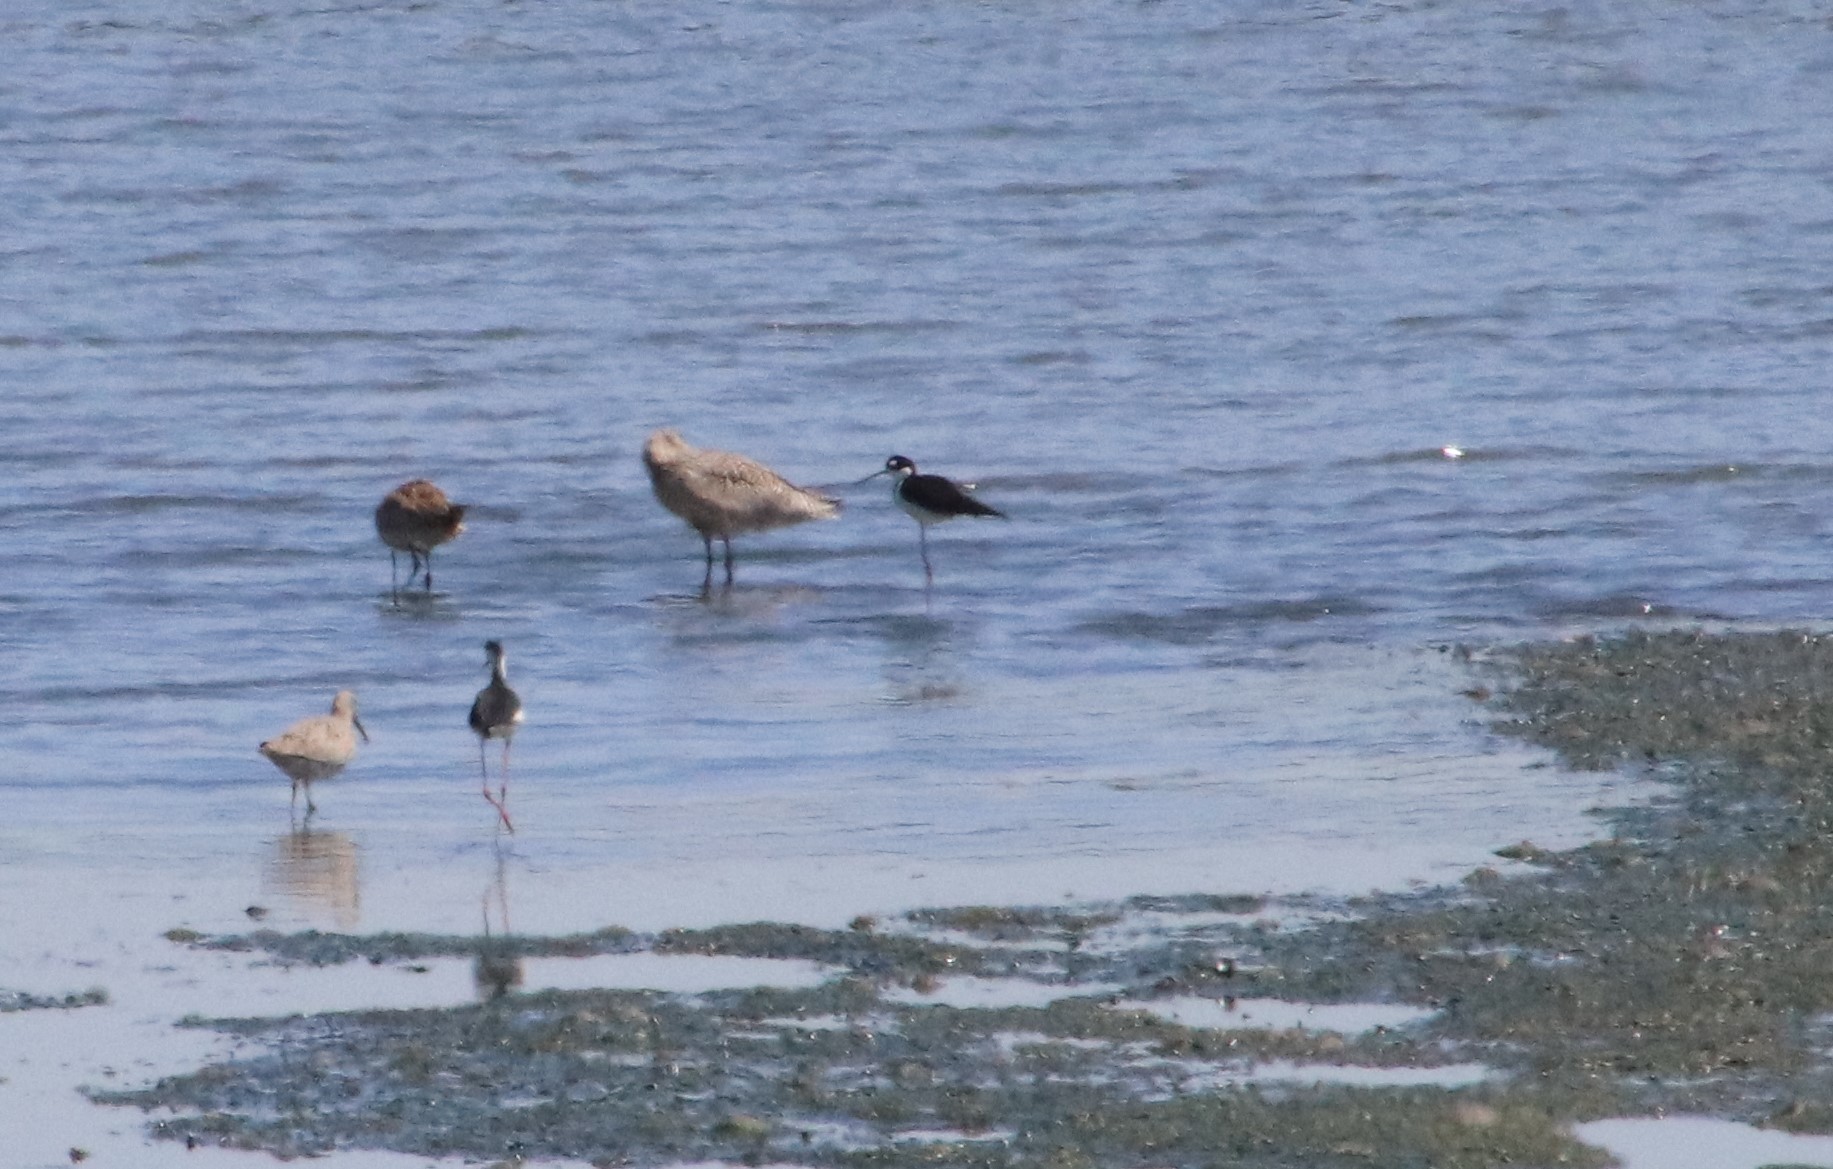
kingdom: Animalia
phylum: Chordata
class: Aves
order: Charadriiformes
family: Recurvirostridae
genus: Himantopus
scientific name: Himantopus mexicanus
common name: Black-necked stilt
